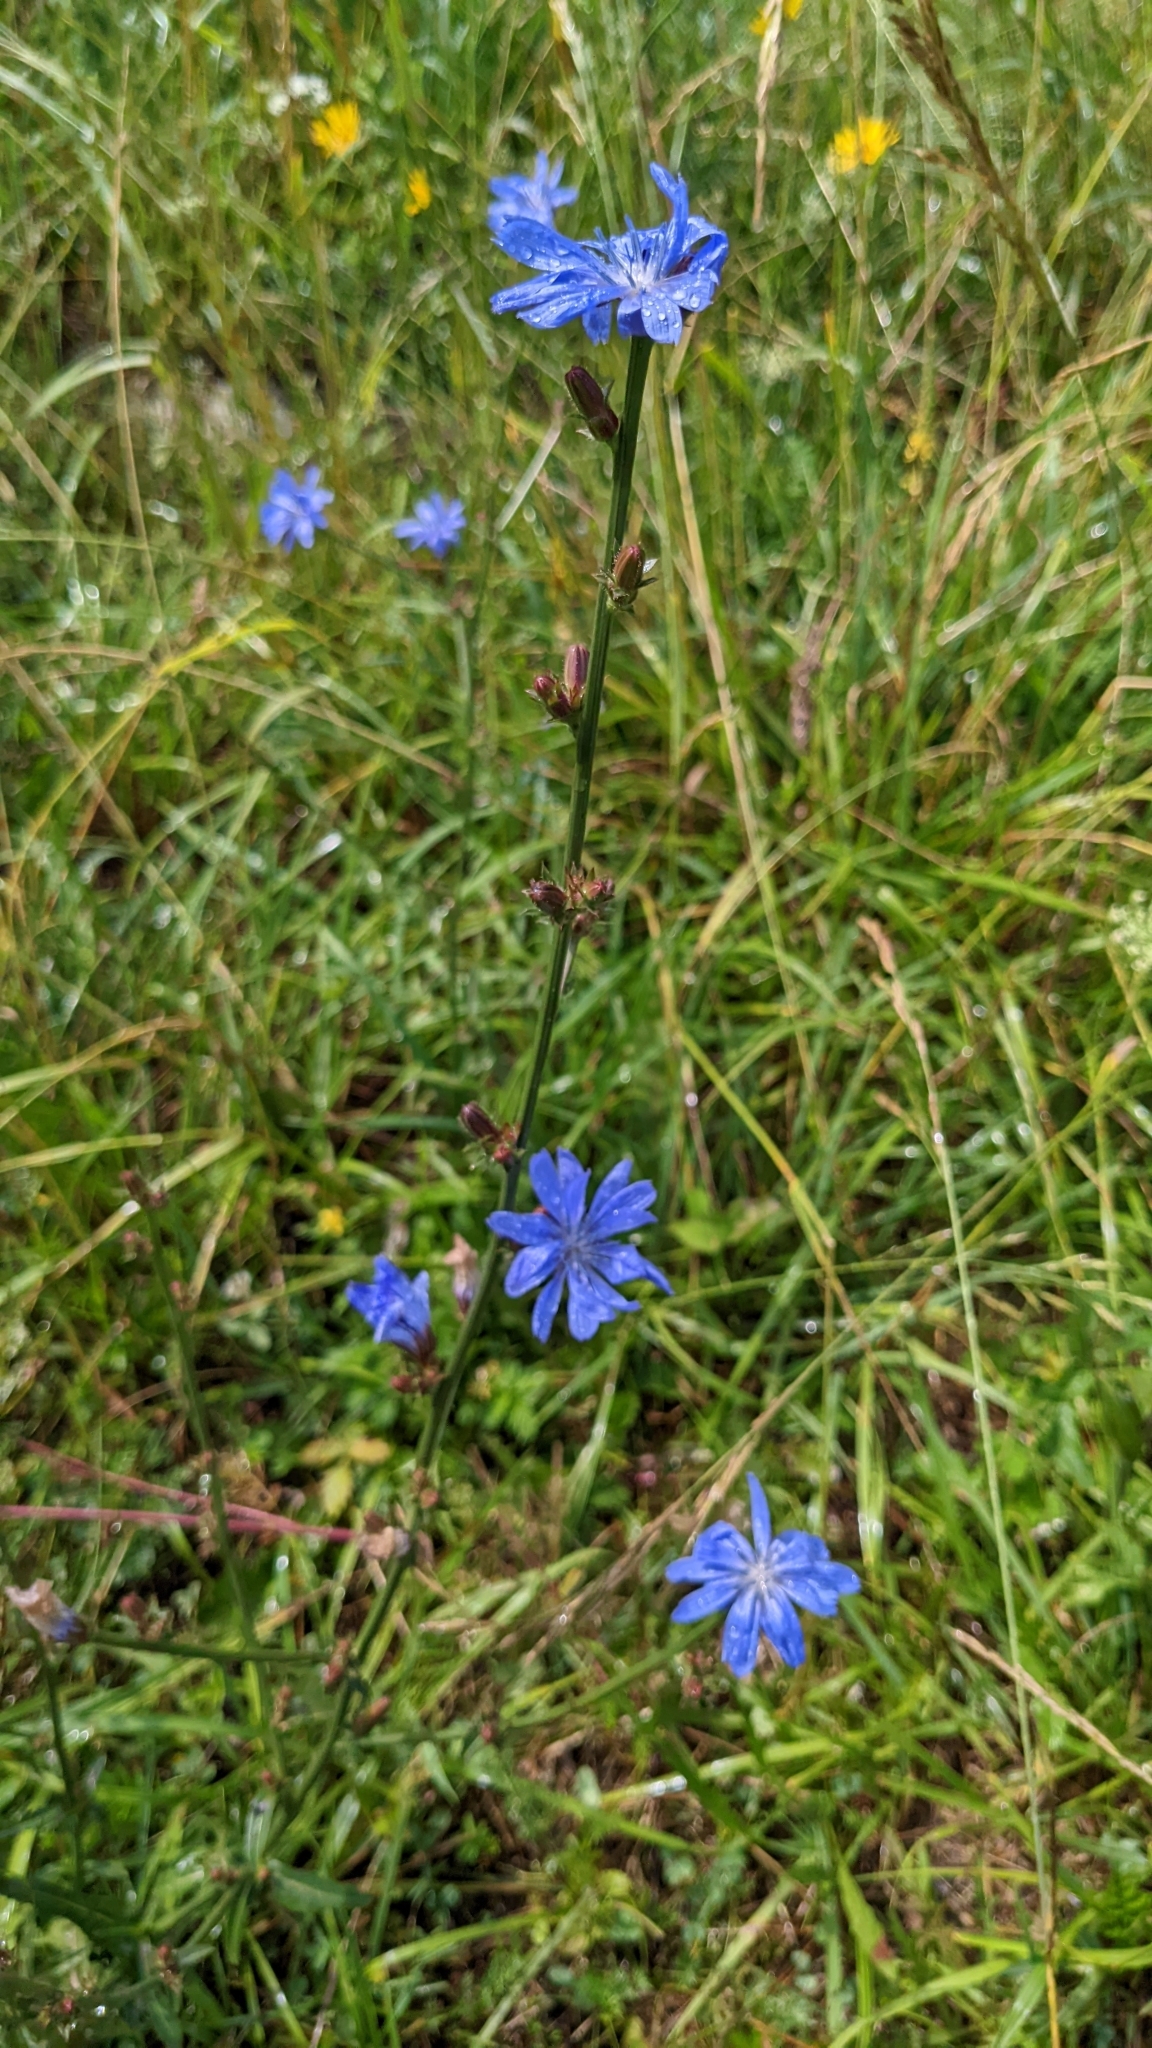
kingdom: Plantae
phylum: Tracheophyta
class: Magnoliopsida
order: Asterales
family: Asteraceae
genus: Cichorium
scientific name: Cichorium intybus
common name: Chicory
